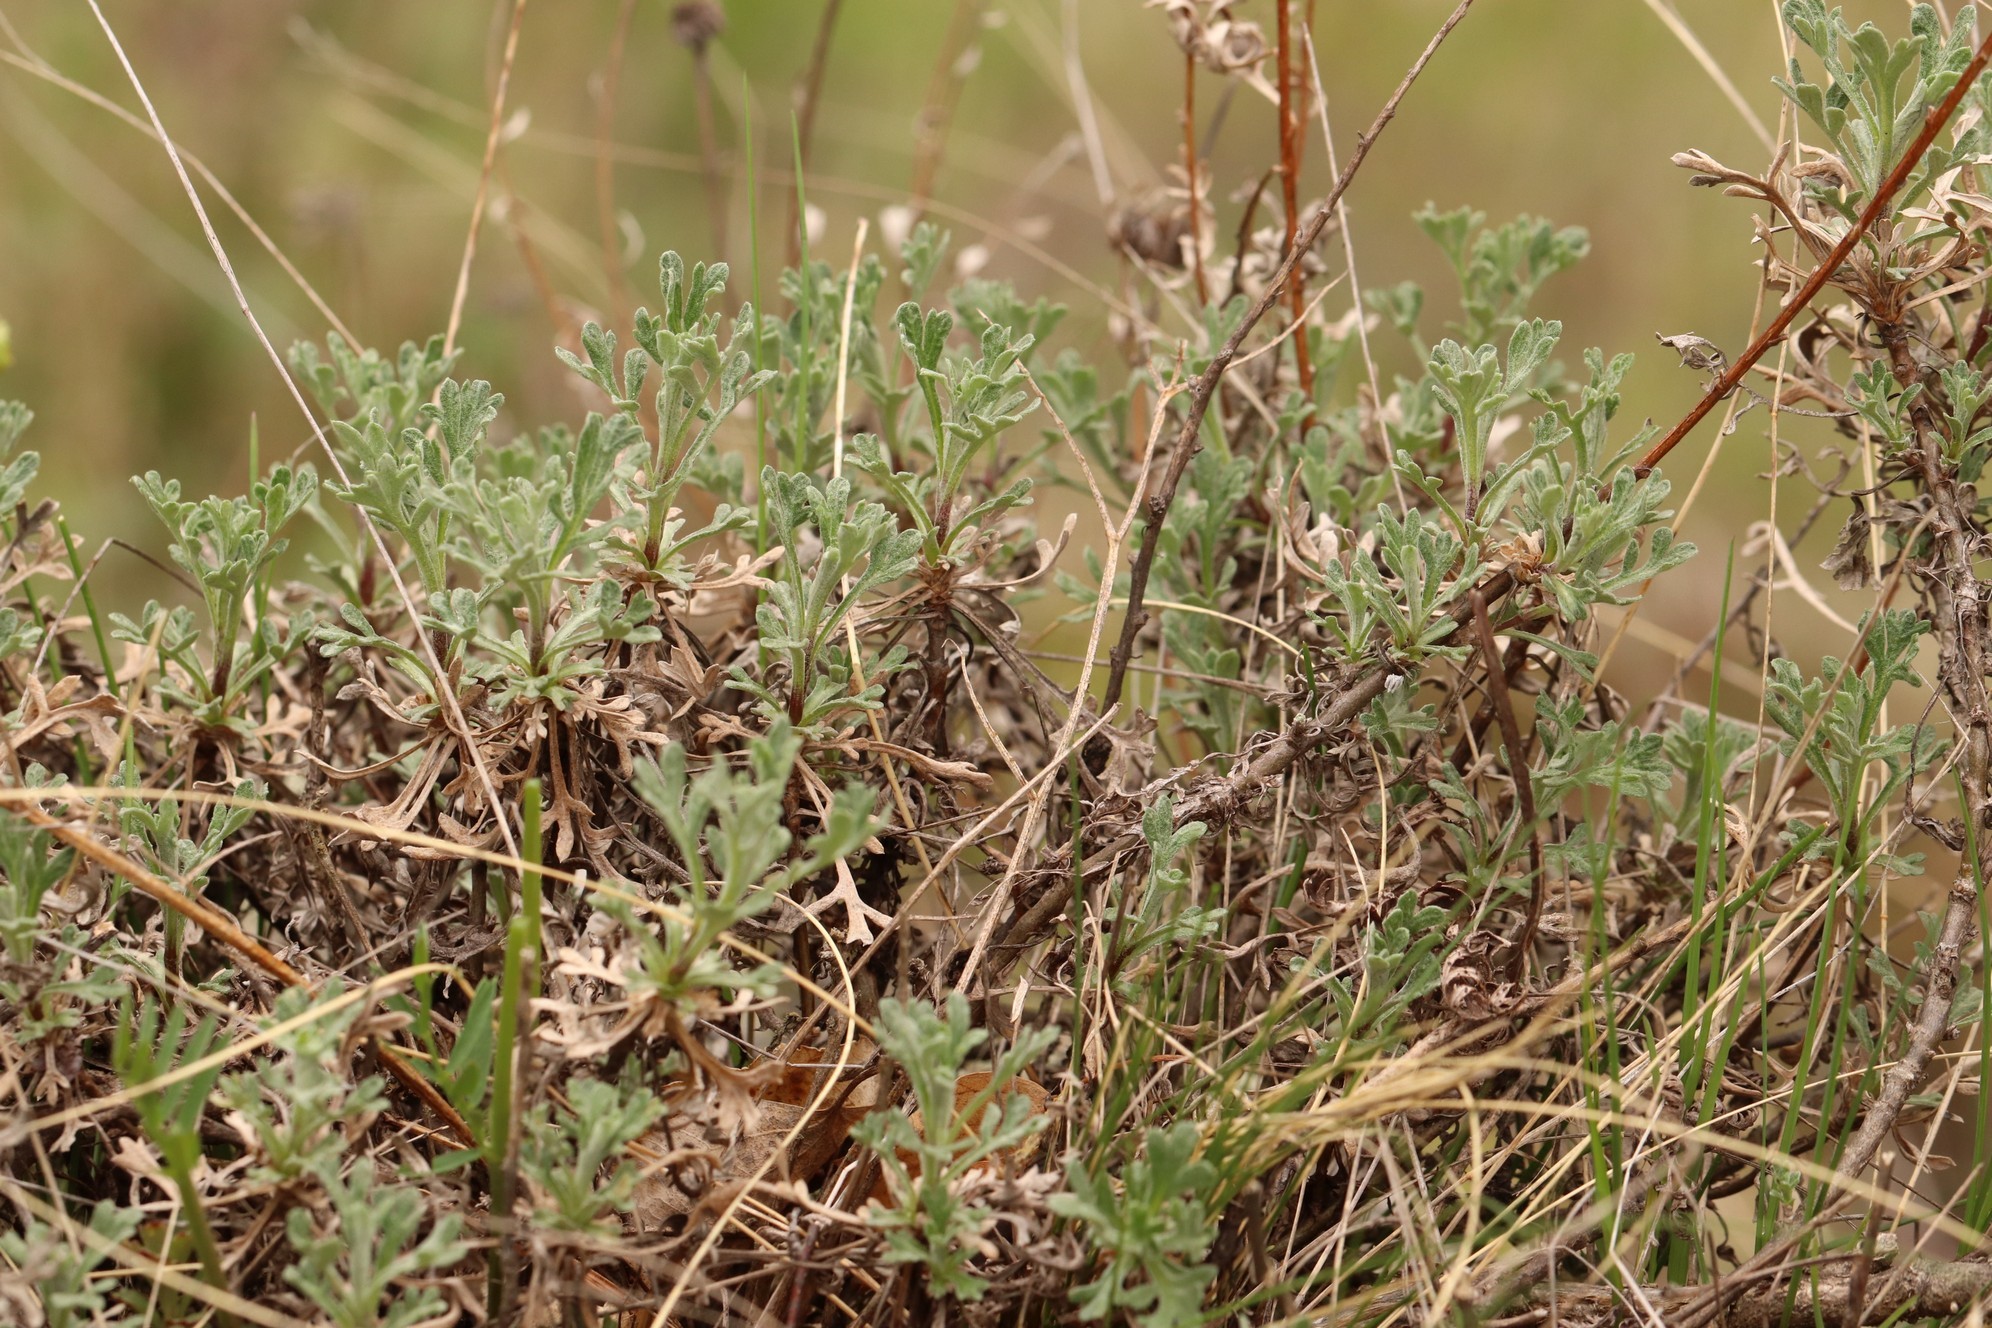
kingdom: Plantae
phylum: Tracheophyta
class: Magnoliopsida
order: Asterales
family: Asteraceae
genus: Chrysanthemum
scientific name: Chrysanthemum sinuatum
